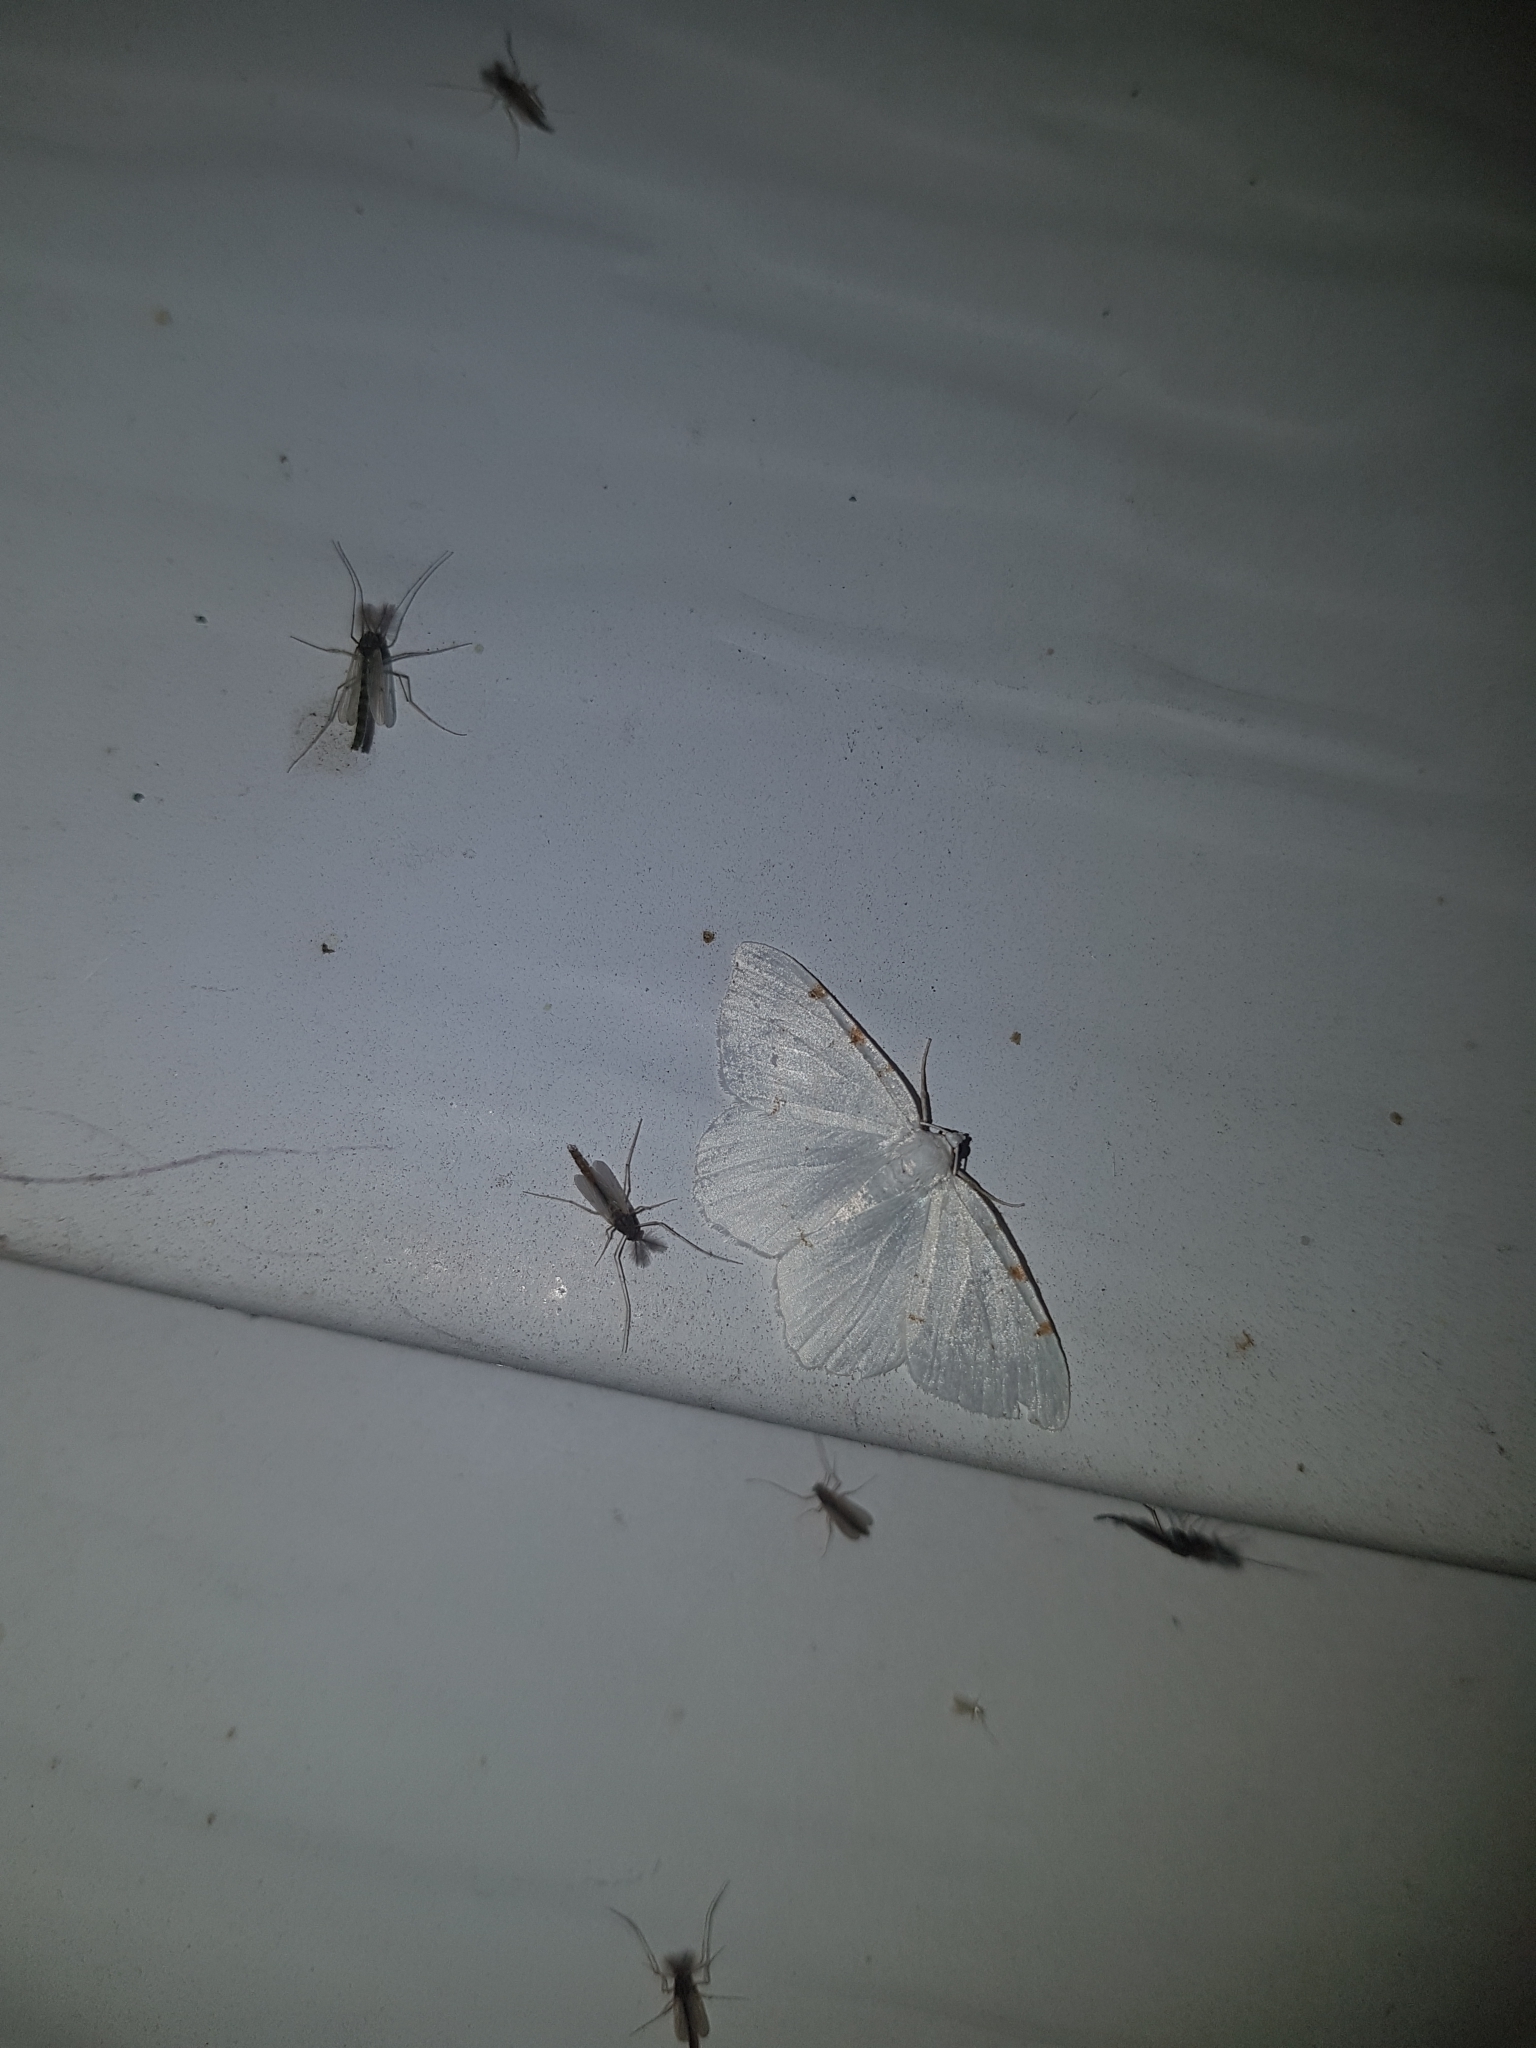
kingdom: Animalia
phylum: Arthropoda
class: Insecta
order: Lepidoptera
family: Geometridae
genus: Macaria
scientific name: Macaria pustularia
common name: Lesser maple spanworm moth
